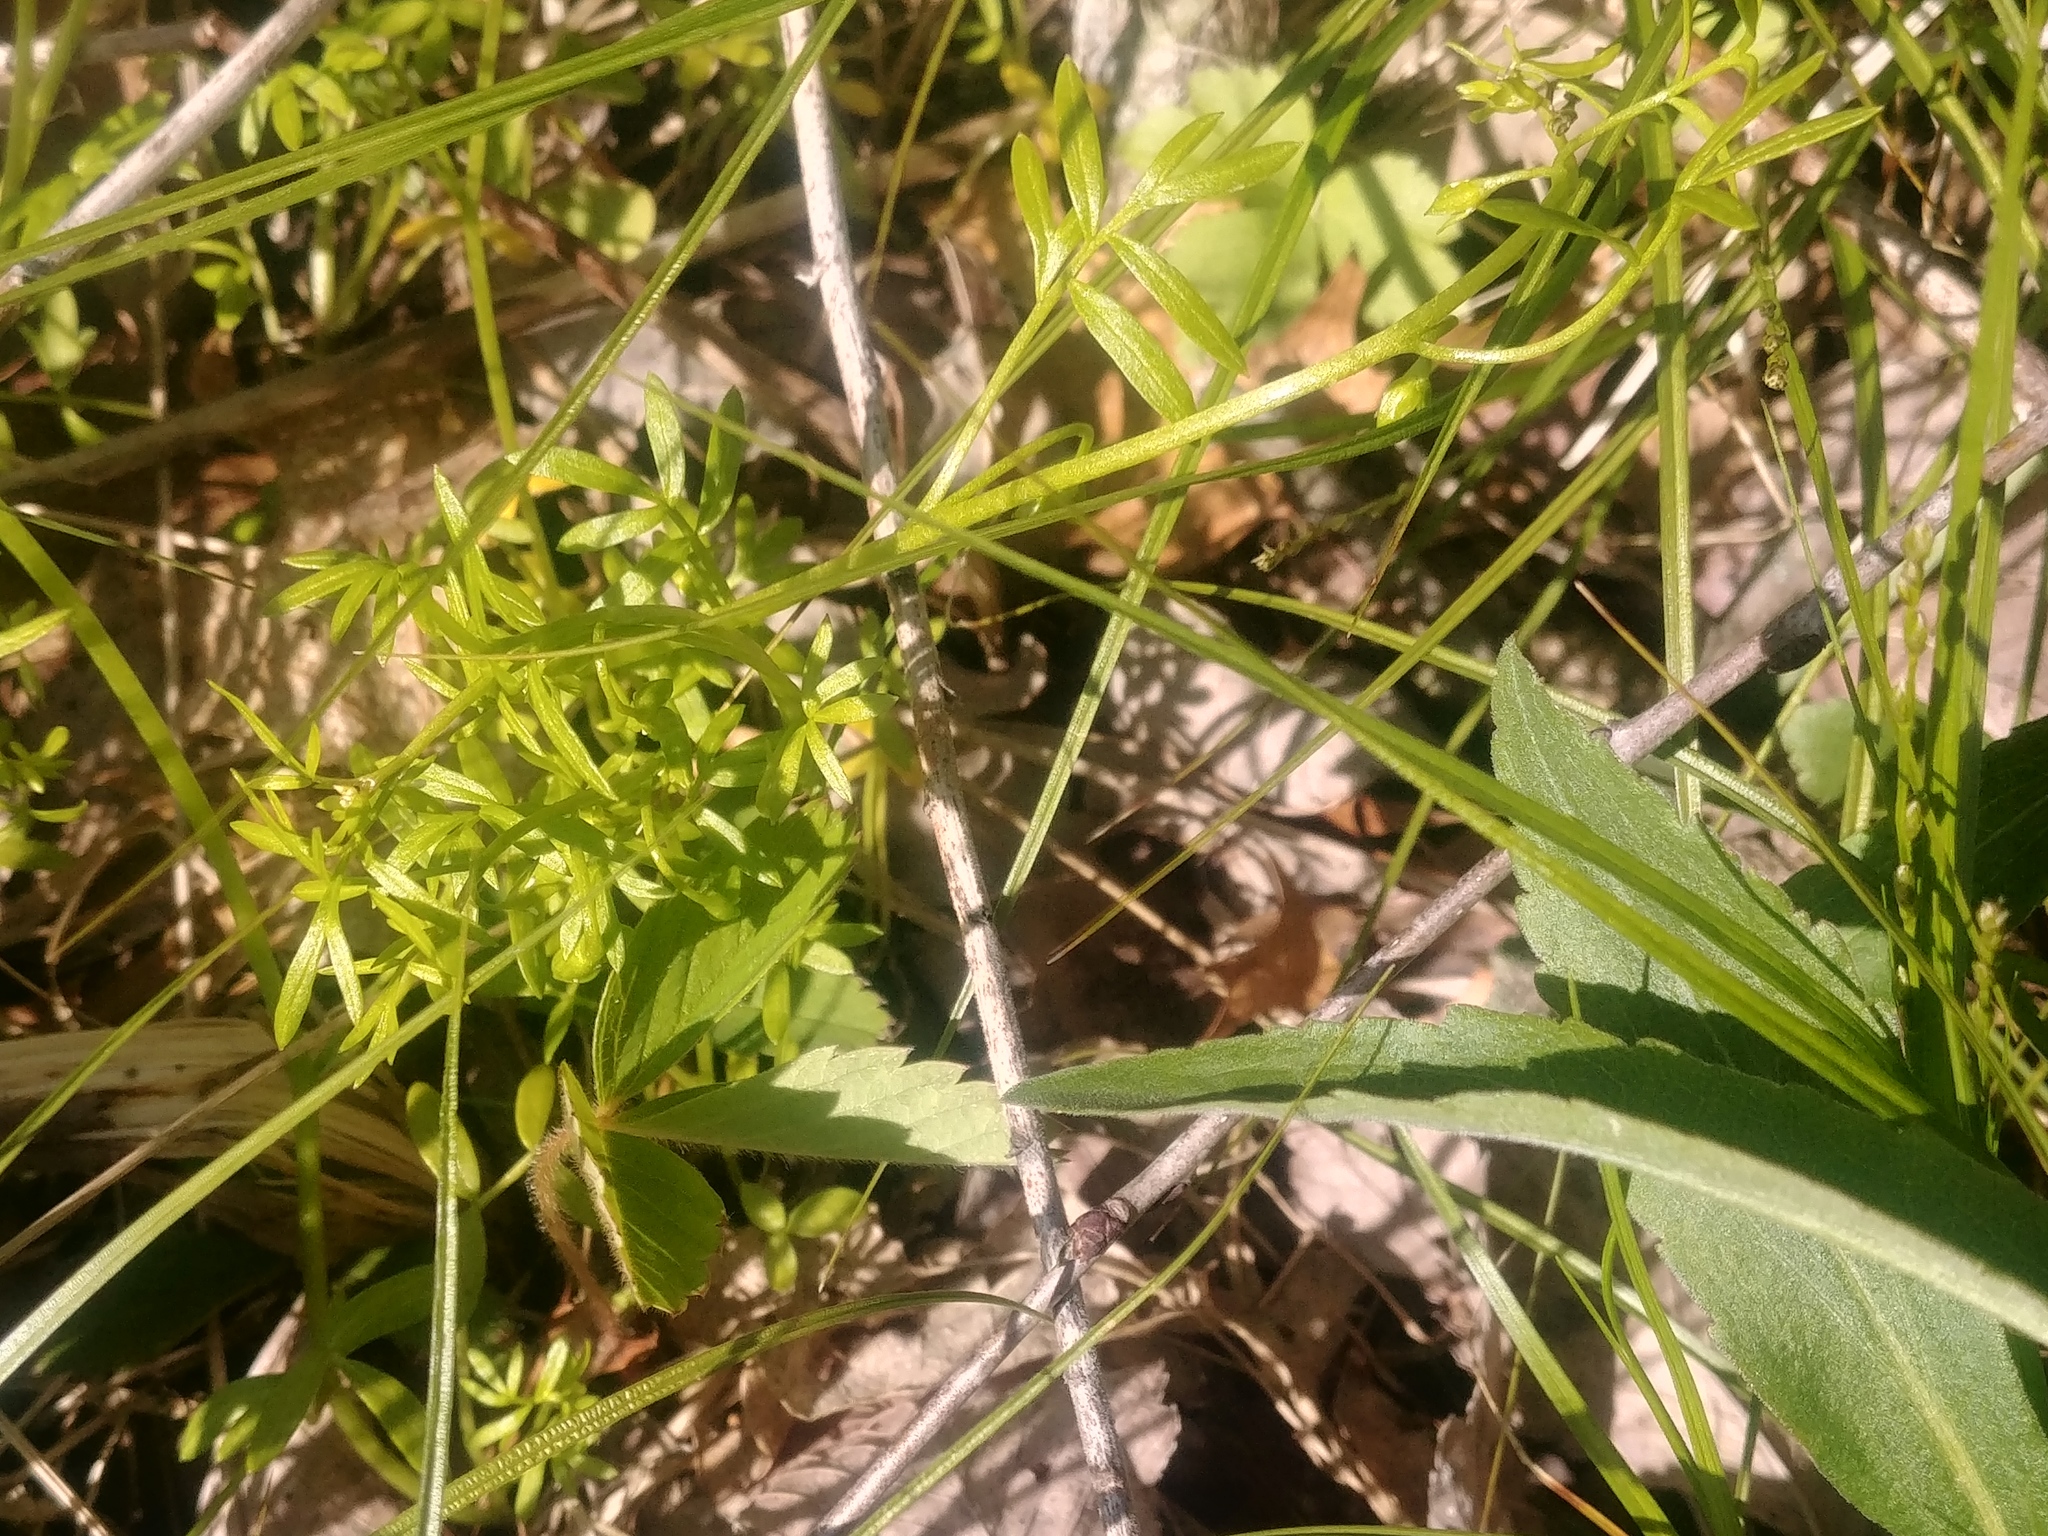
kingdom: Plantae
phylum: Tracheophyta
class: Magnoliopsida
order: Brassicales
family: Limnanthaceae
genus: Floerkea
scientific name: Floerkea proserpinacoides
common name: False mermaid
